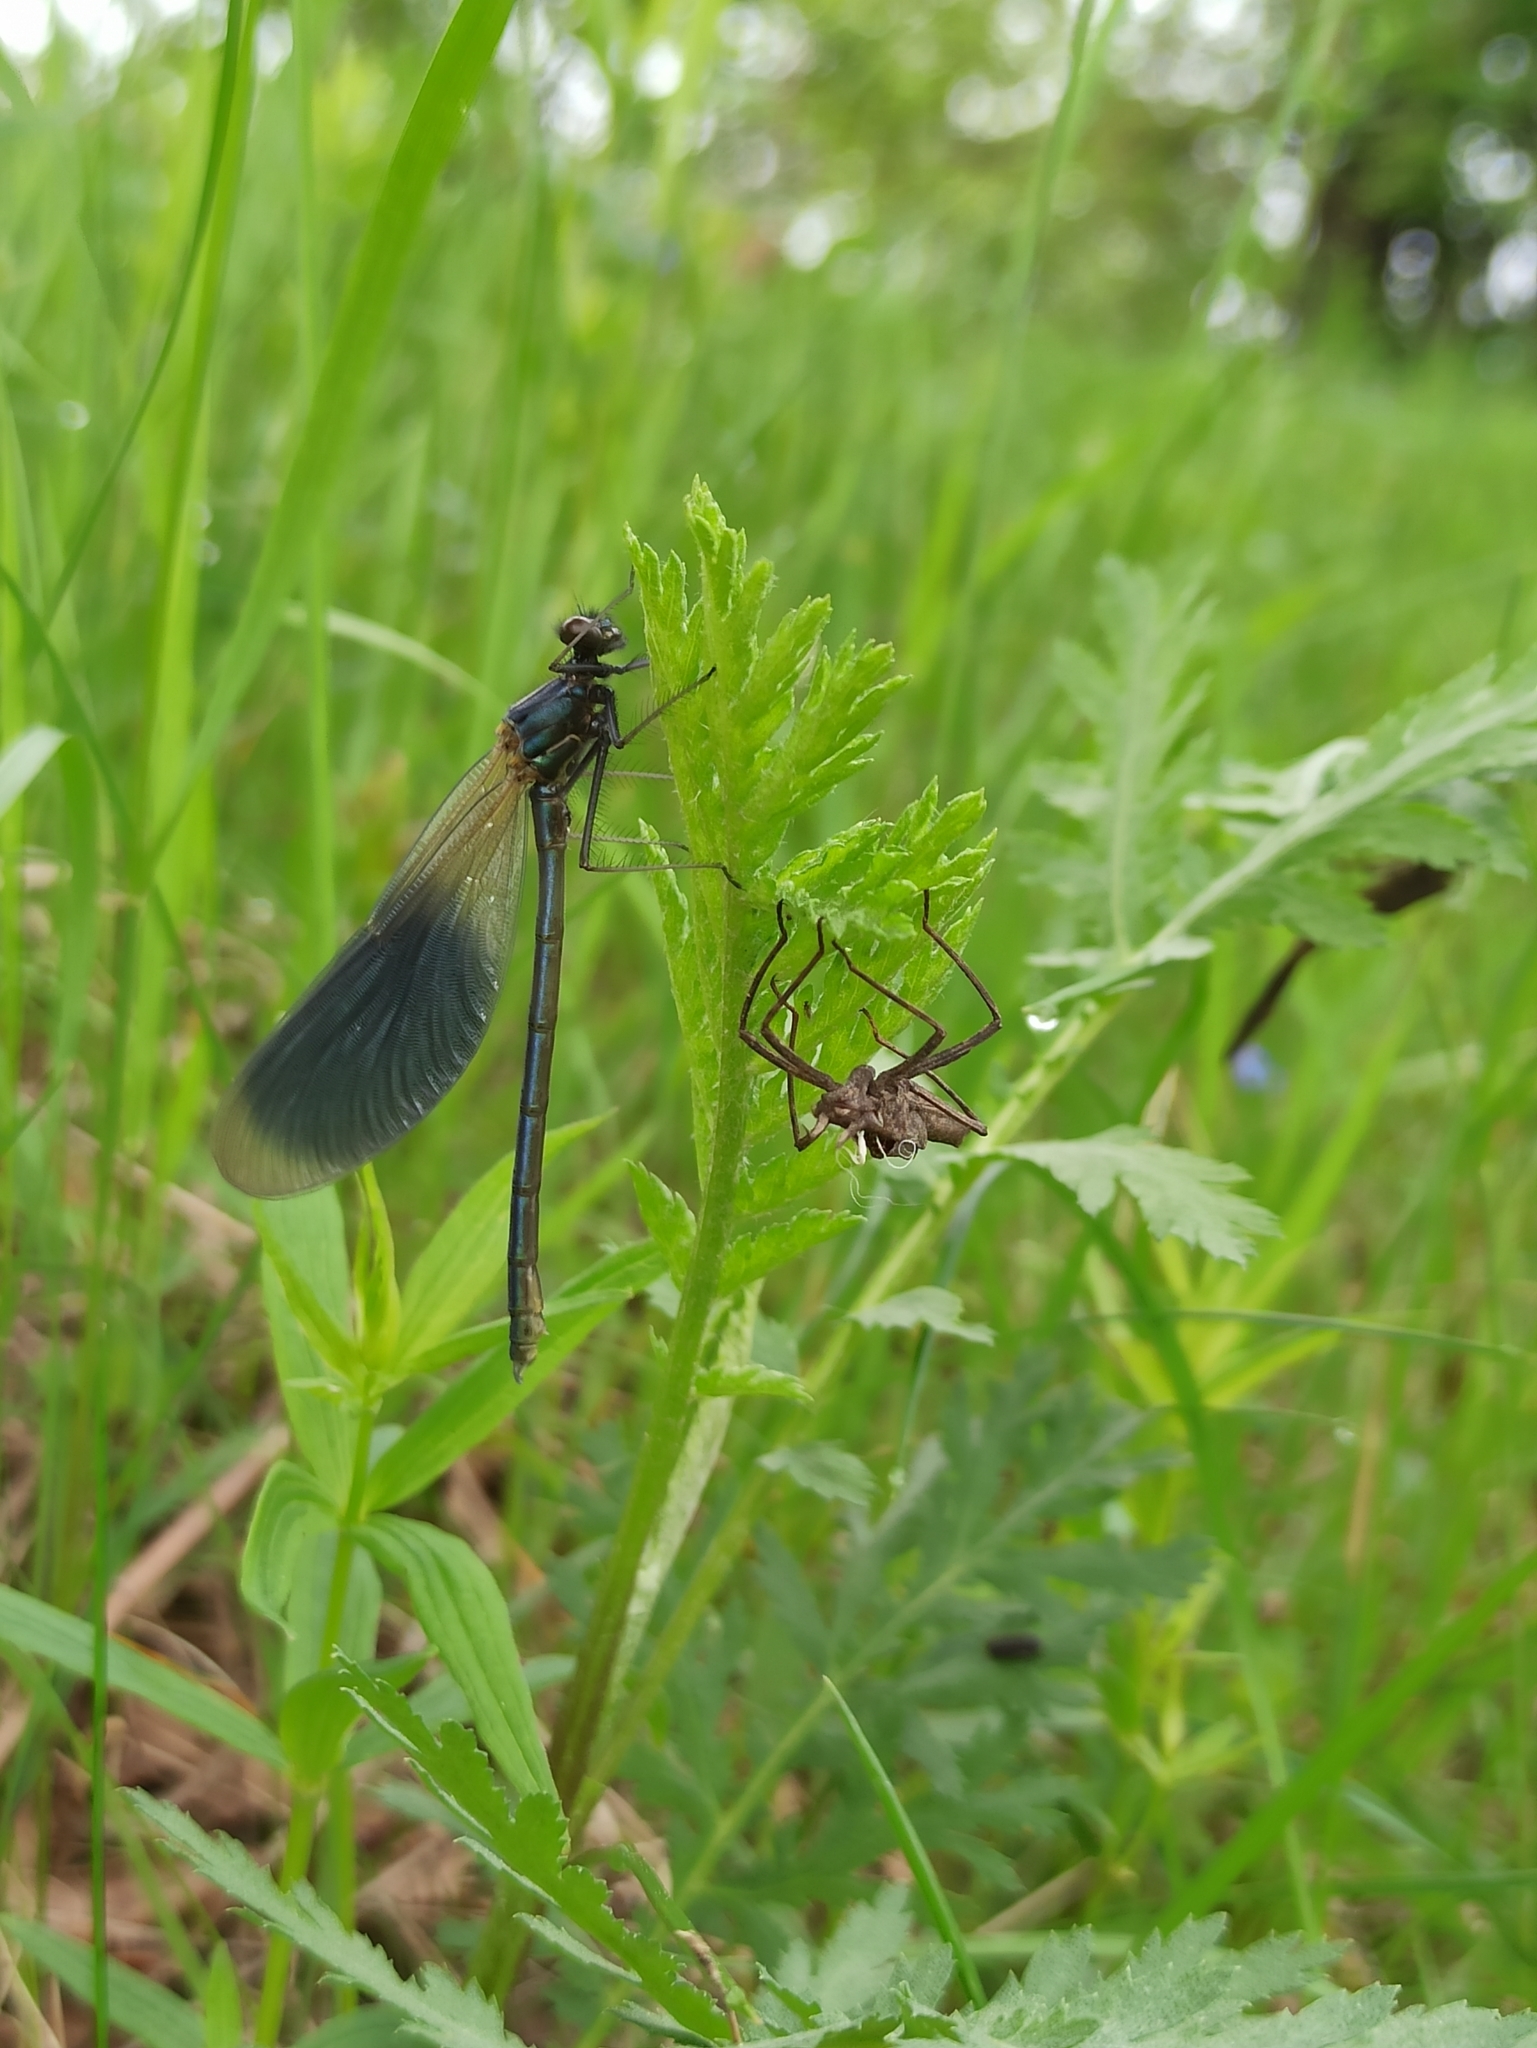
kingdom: Animalia
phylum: Arthropoda
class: Insecta
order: Odonata
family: Calopterygidae
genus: Calopteryx
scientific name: Calopteryx splendens
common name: Banded demoiselle
